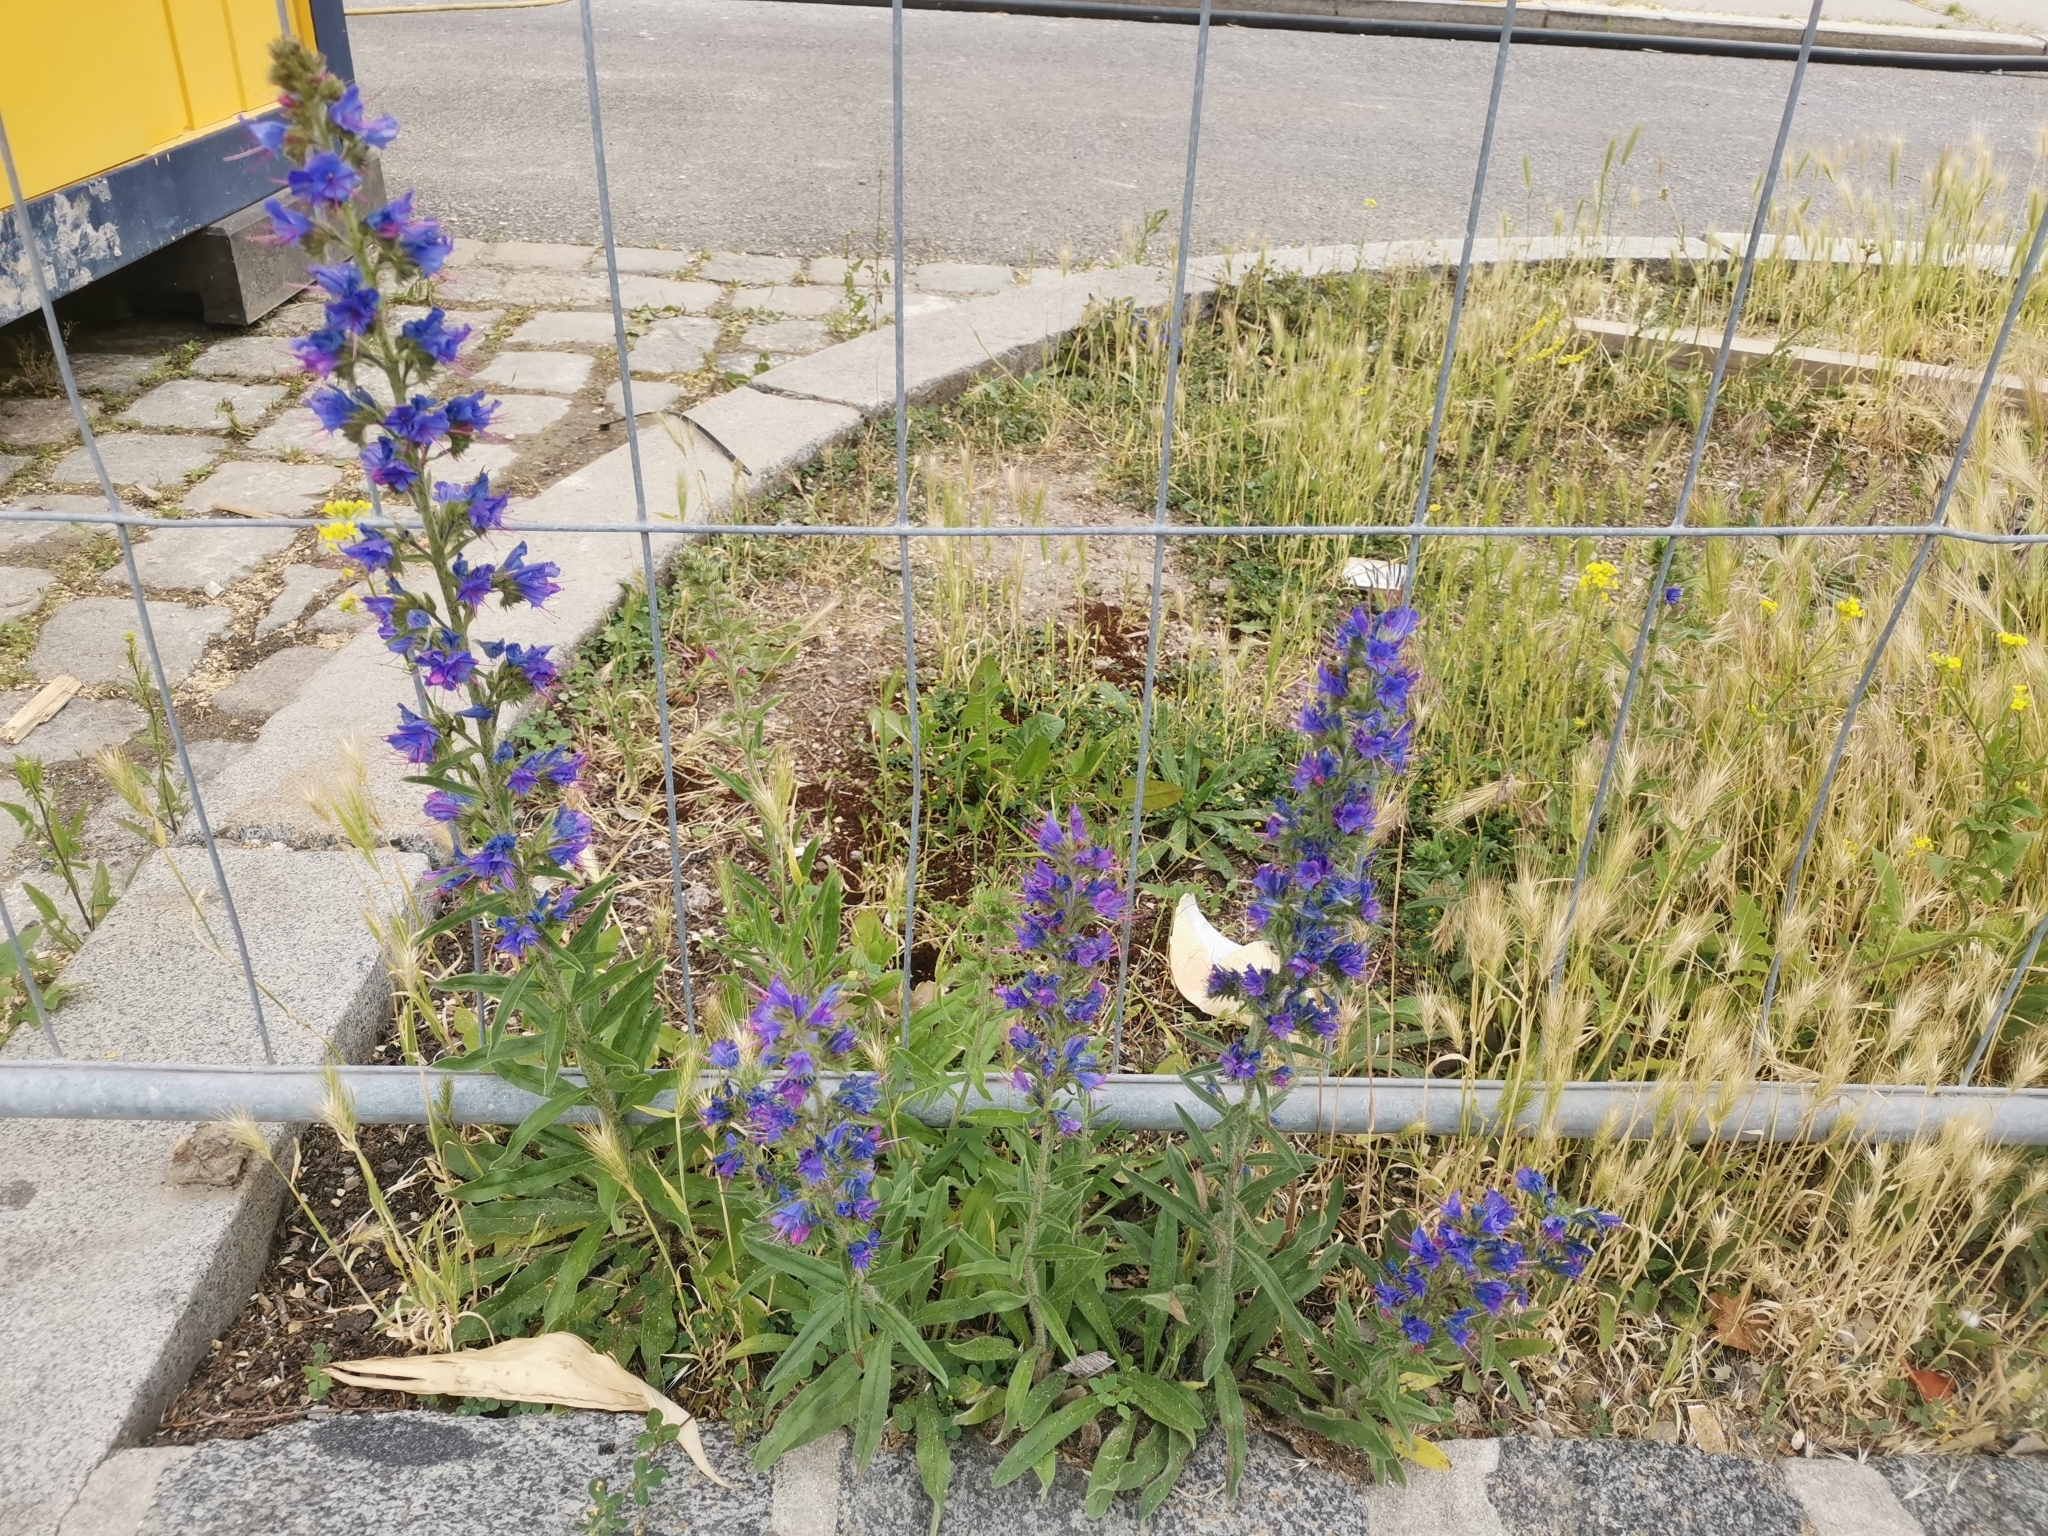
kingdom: Plantae
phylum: Tracheophyta
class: Magnoliopsida
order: Boraginales
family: Boraginaceae
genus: Echium
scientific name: Echium vulgare
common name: Common viper's bugloss
